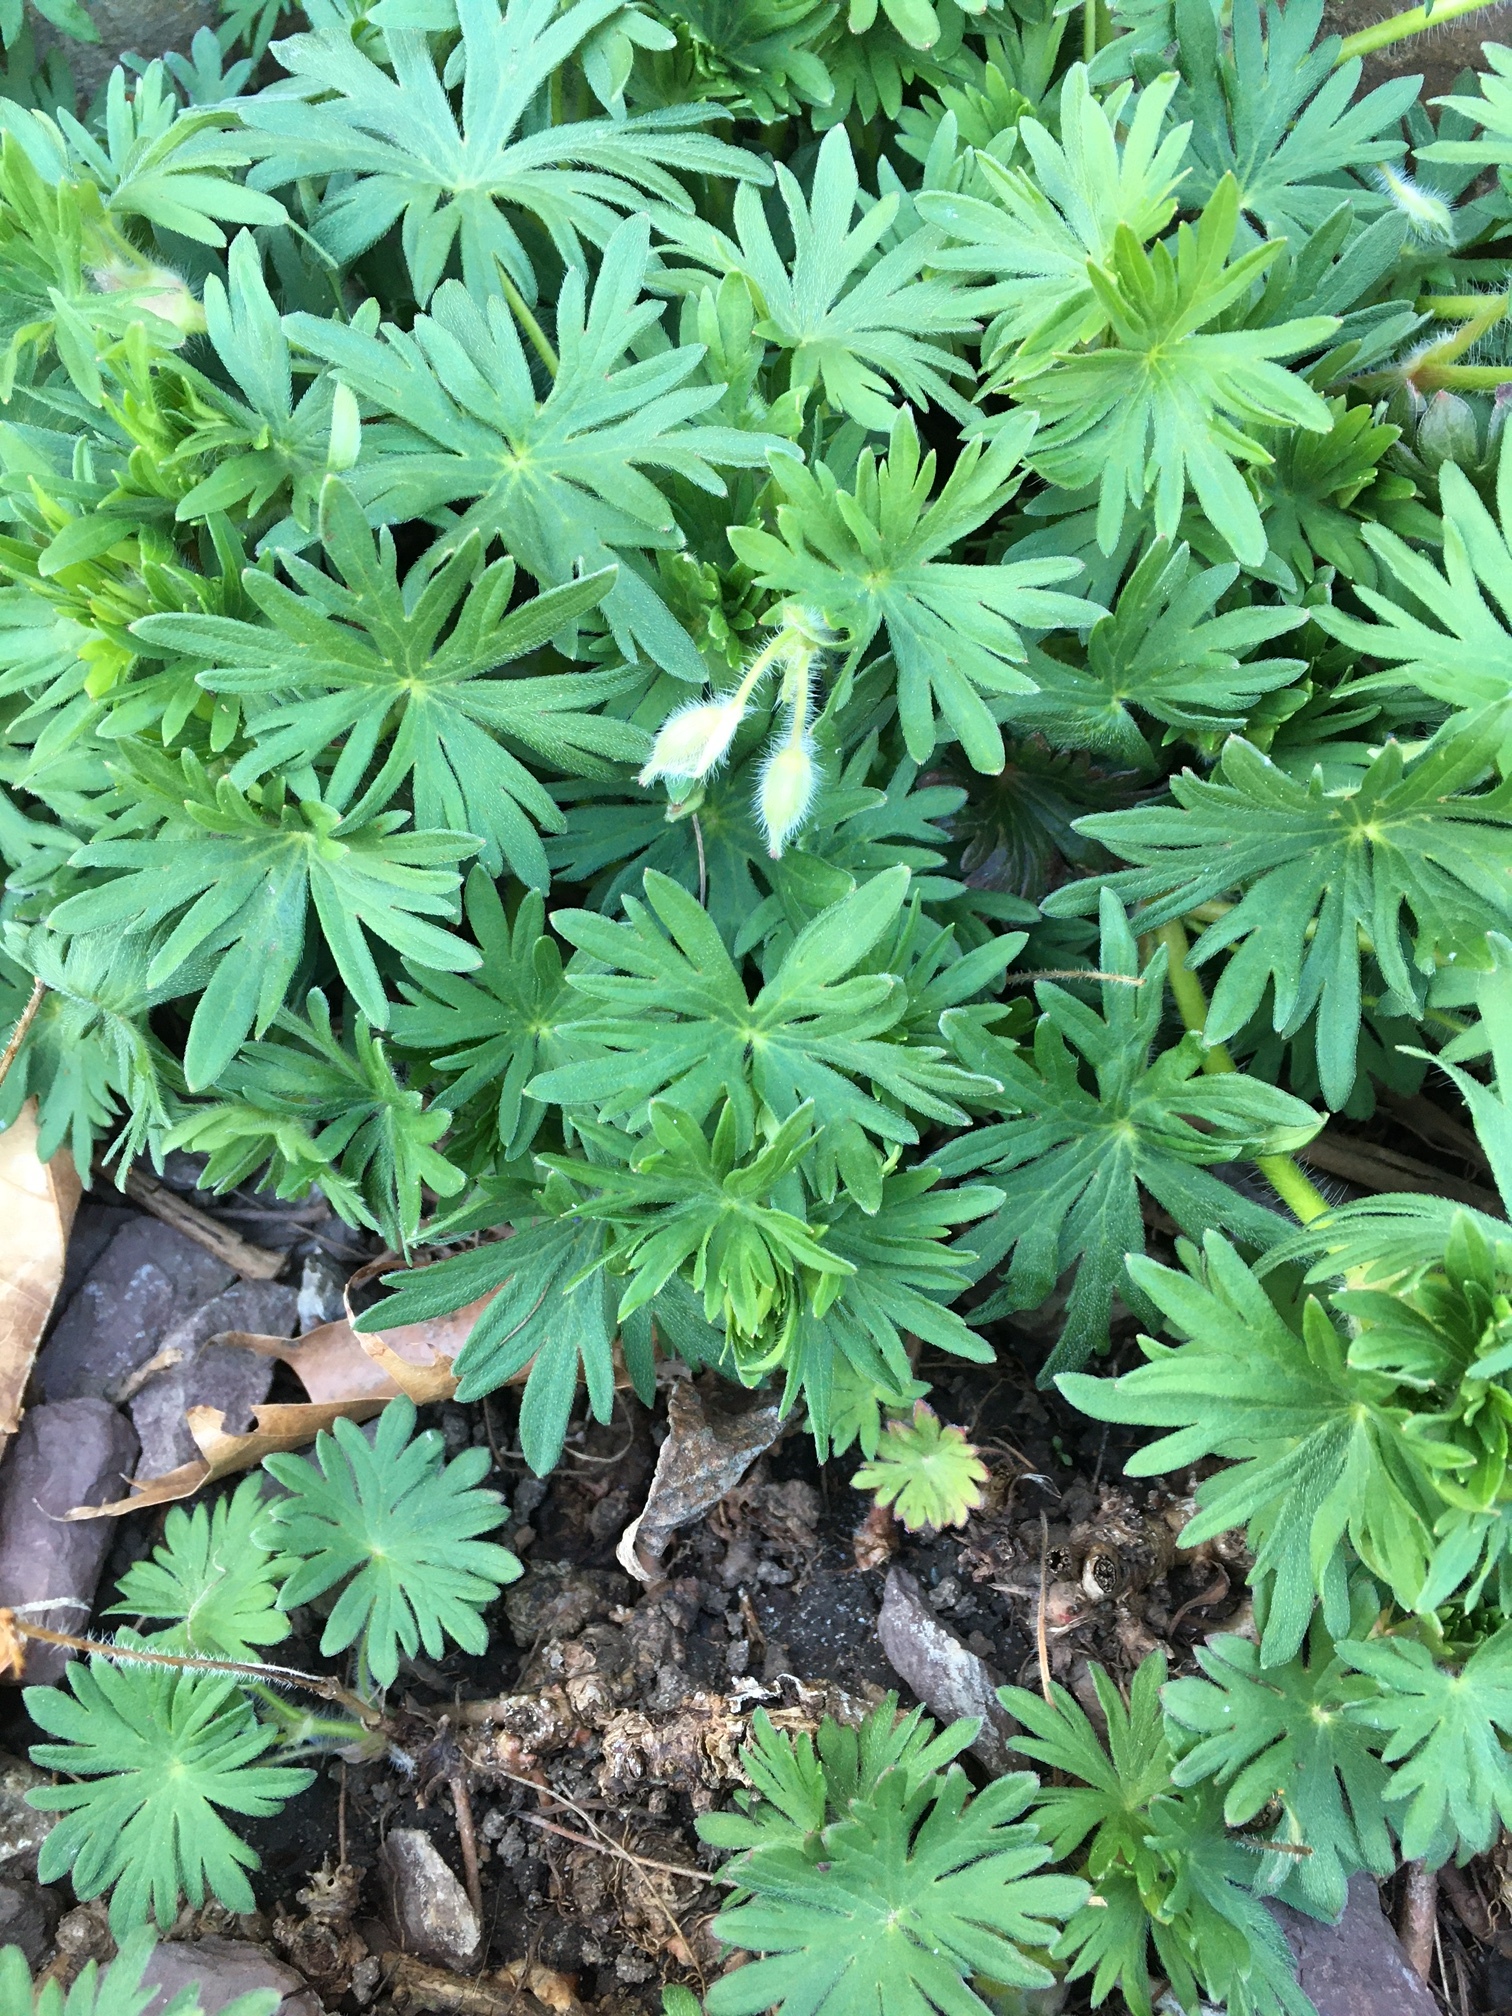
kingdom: Plantae
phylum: Tracheophyta
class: Magnoliopsida
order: Geraniales
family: Geraniaceae
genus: Geranium
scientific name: Geranium sanguineum
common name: Bloody crane's-bill
